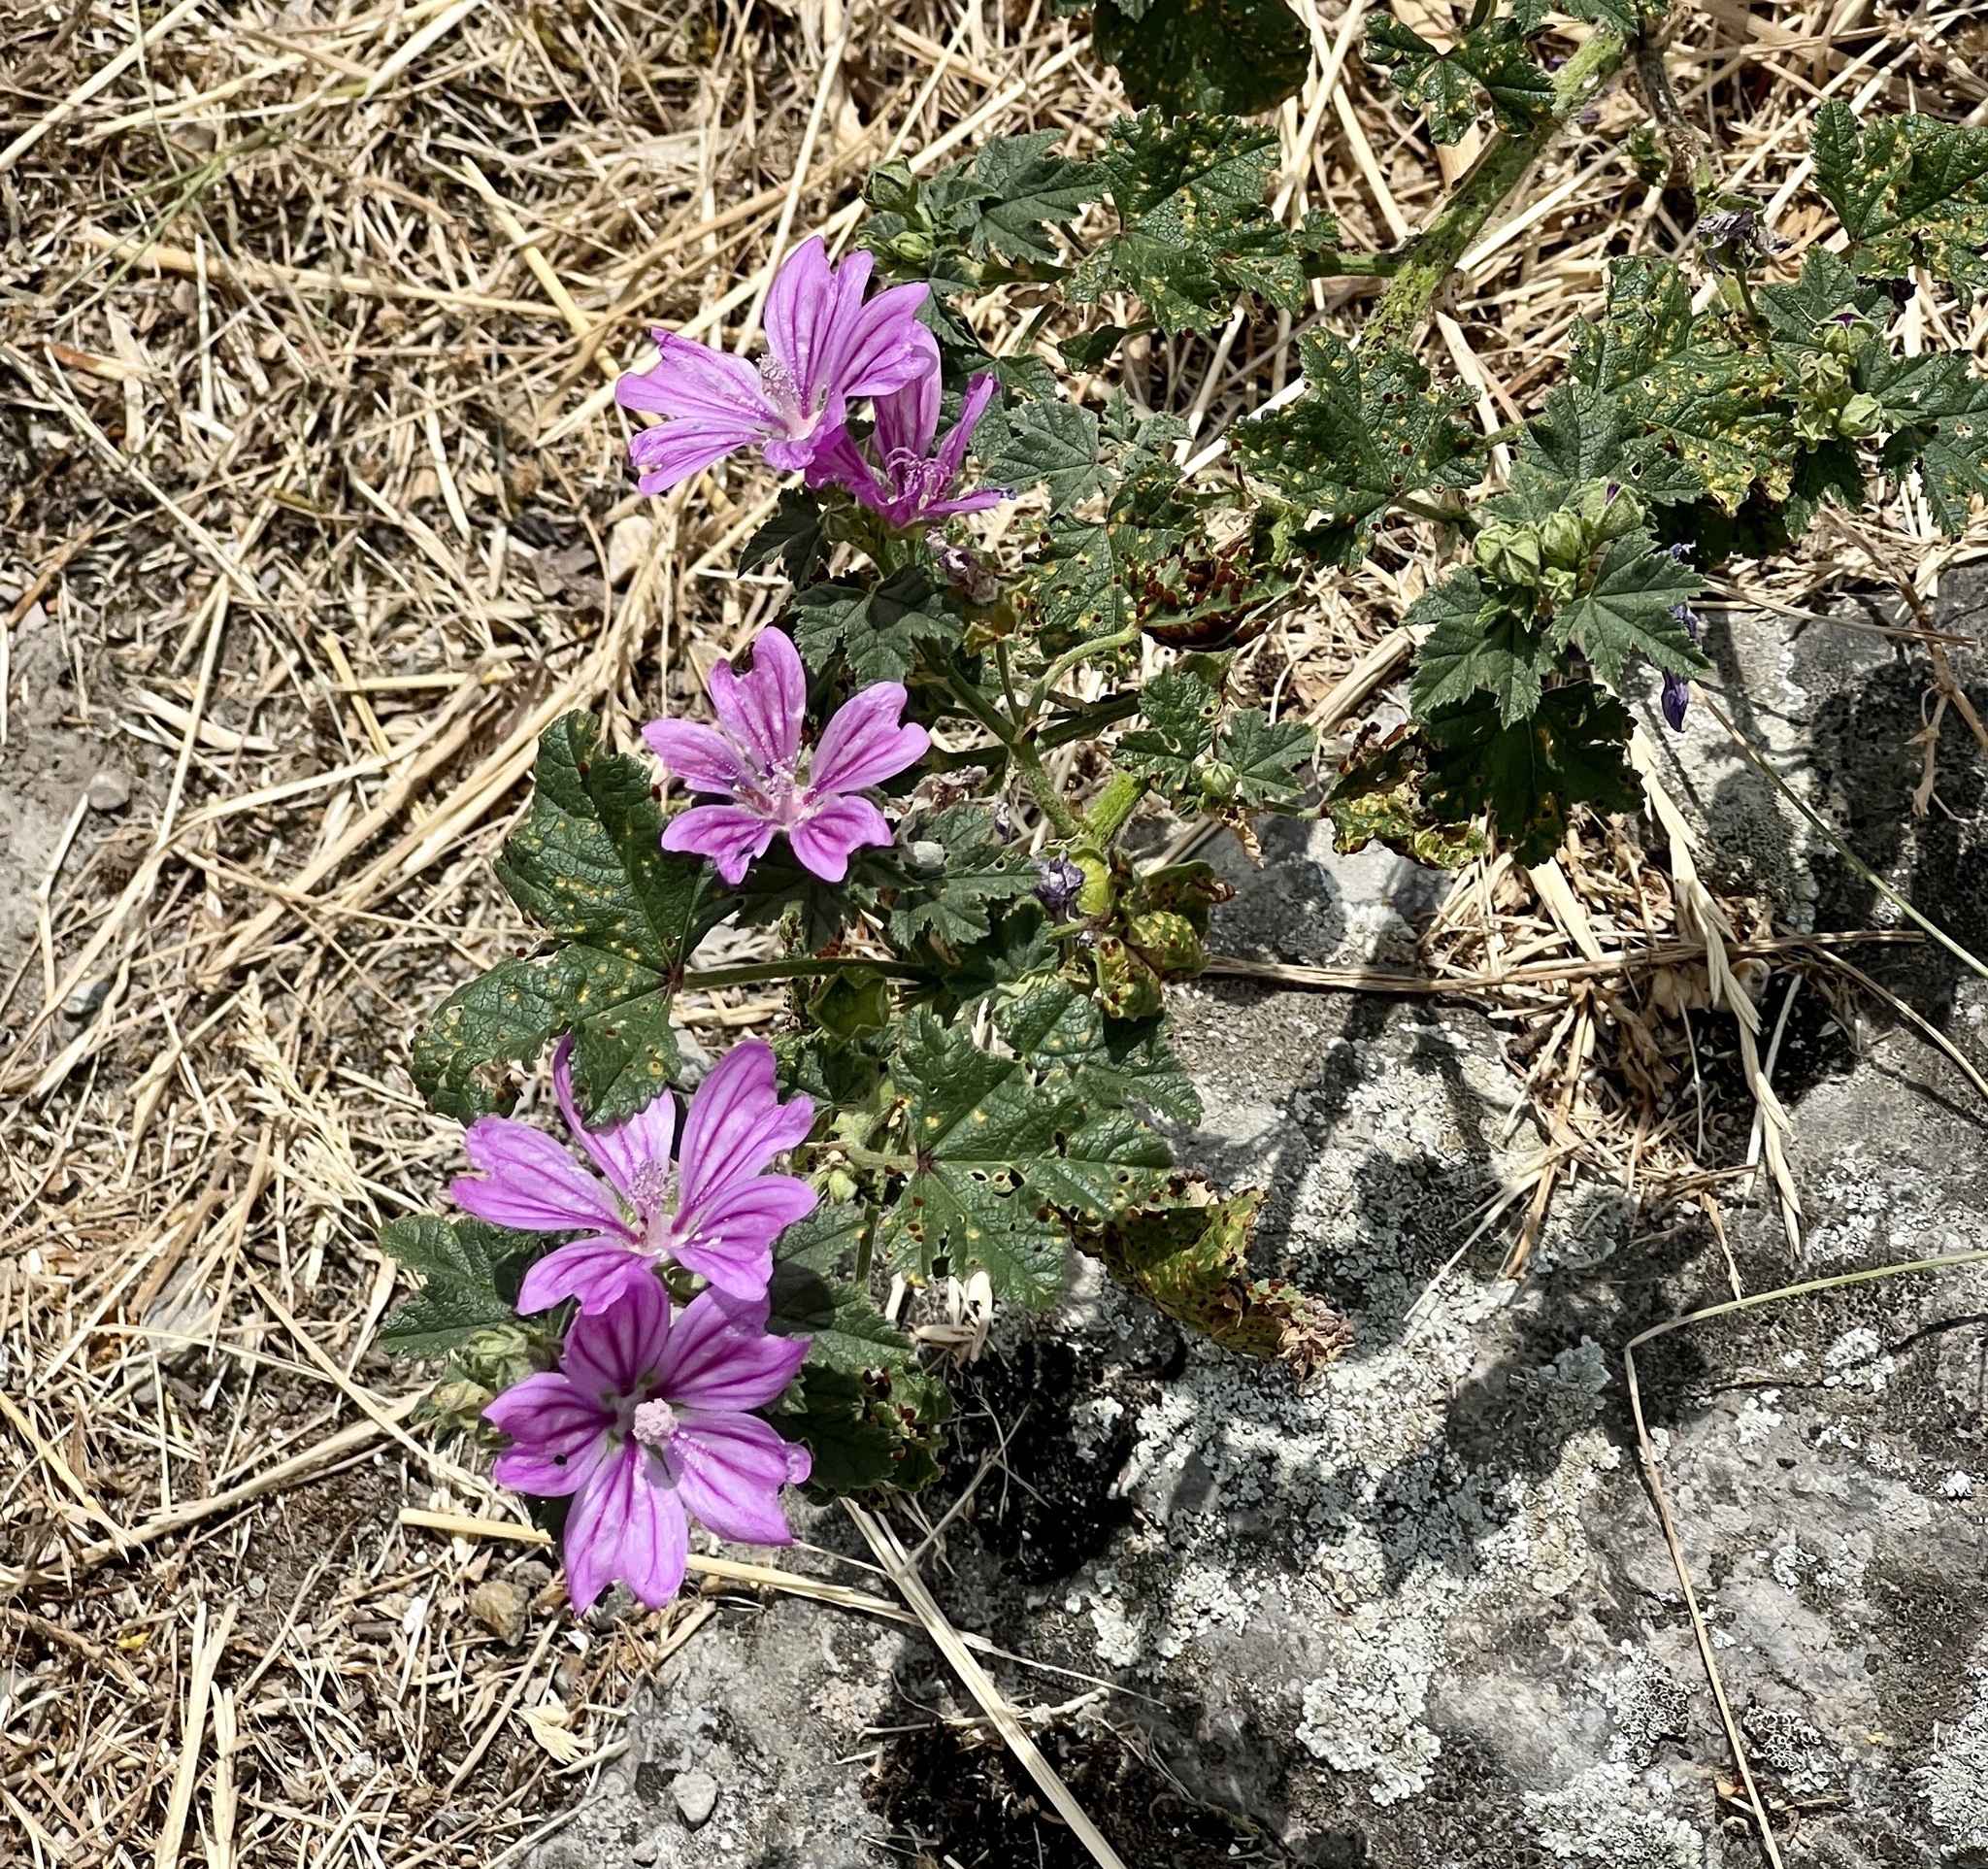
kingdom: Plantae
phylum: Tracheophyta
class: Magnoliopsida
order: Malvales
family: Malvaceae
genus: Malva
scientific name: Malva sylvestris
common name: Common mallow
